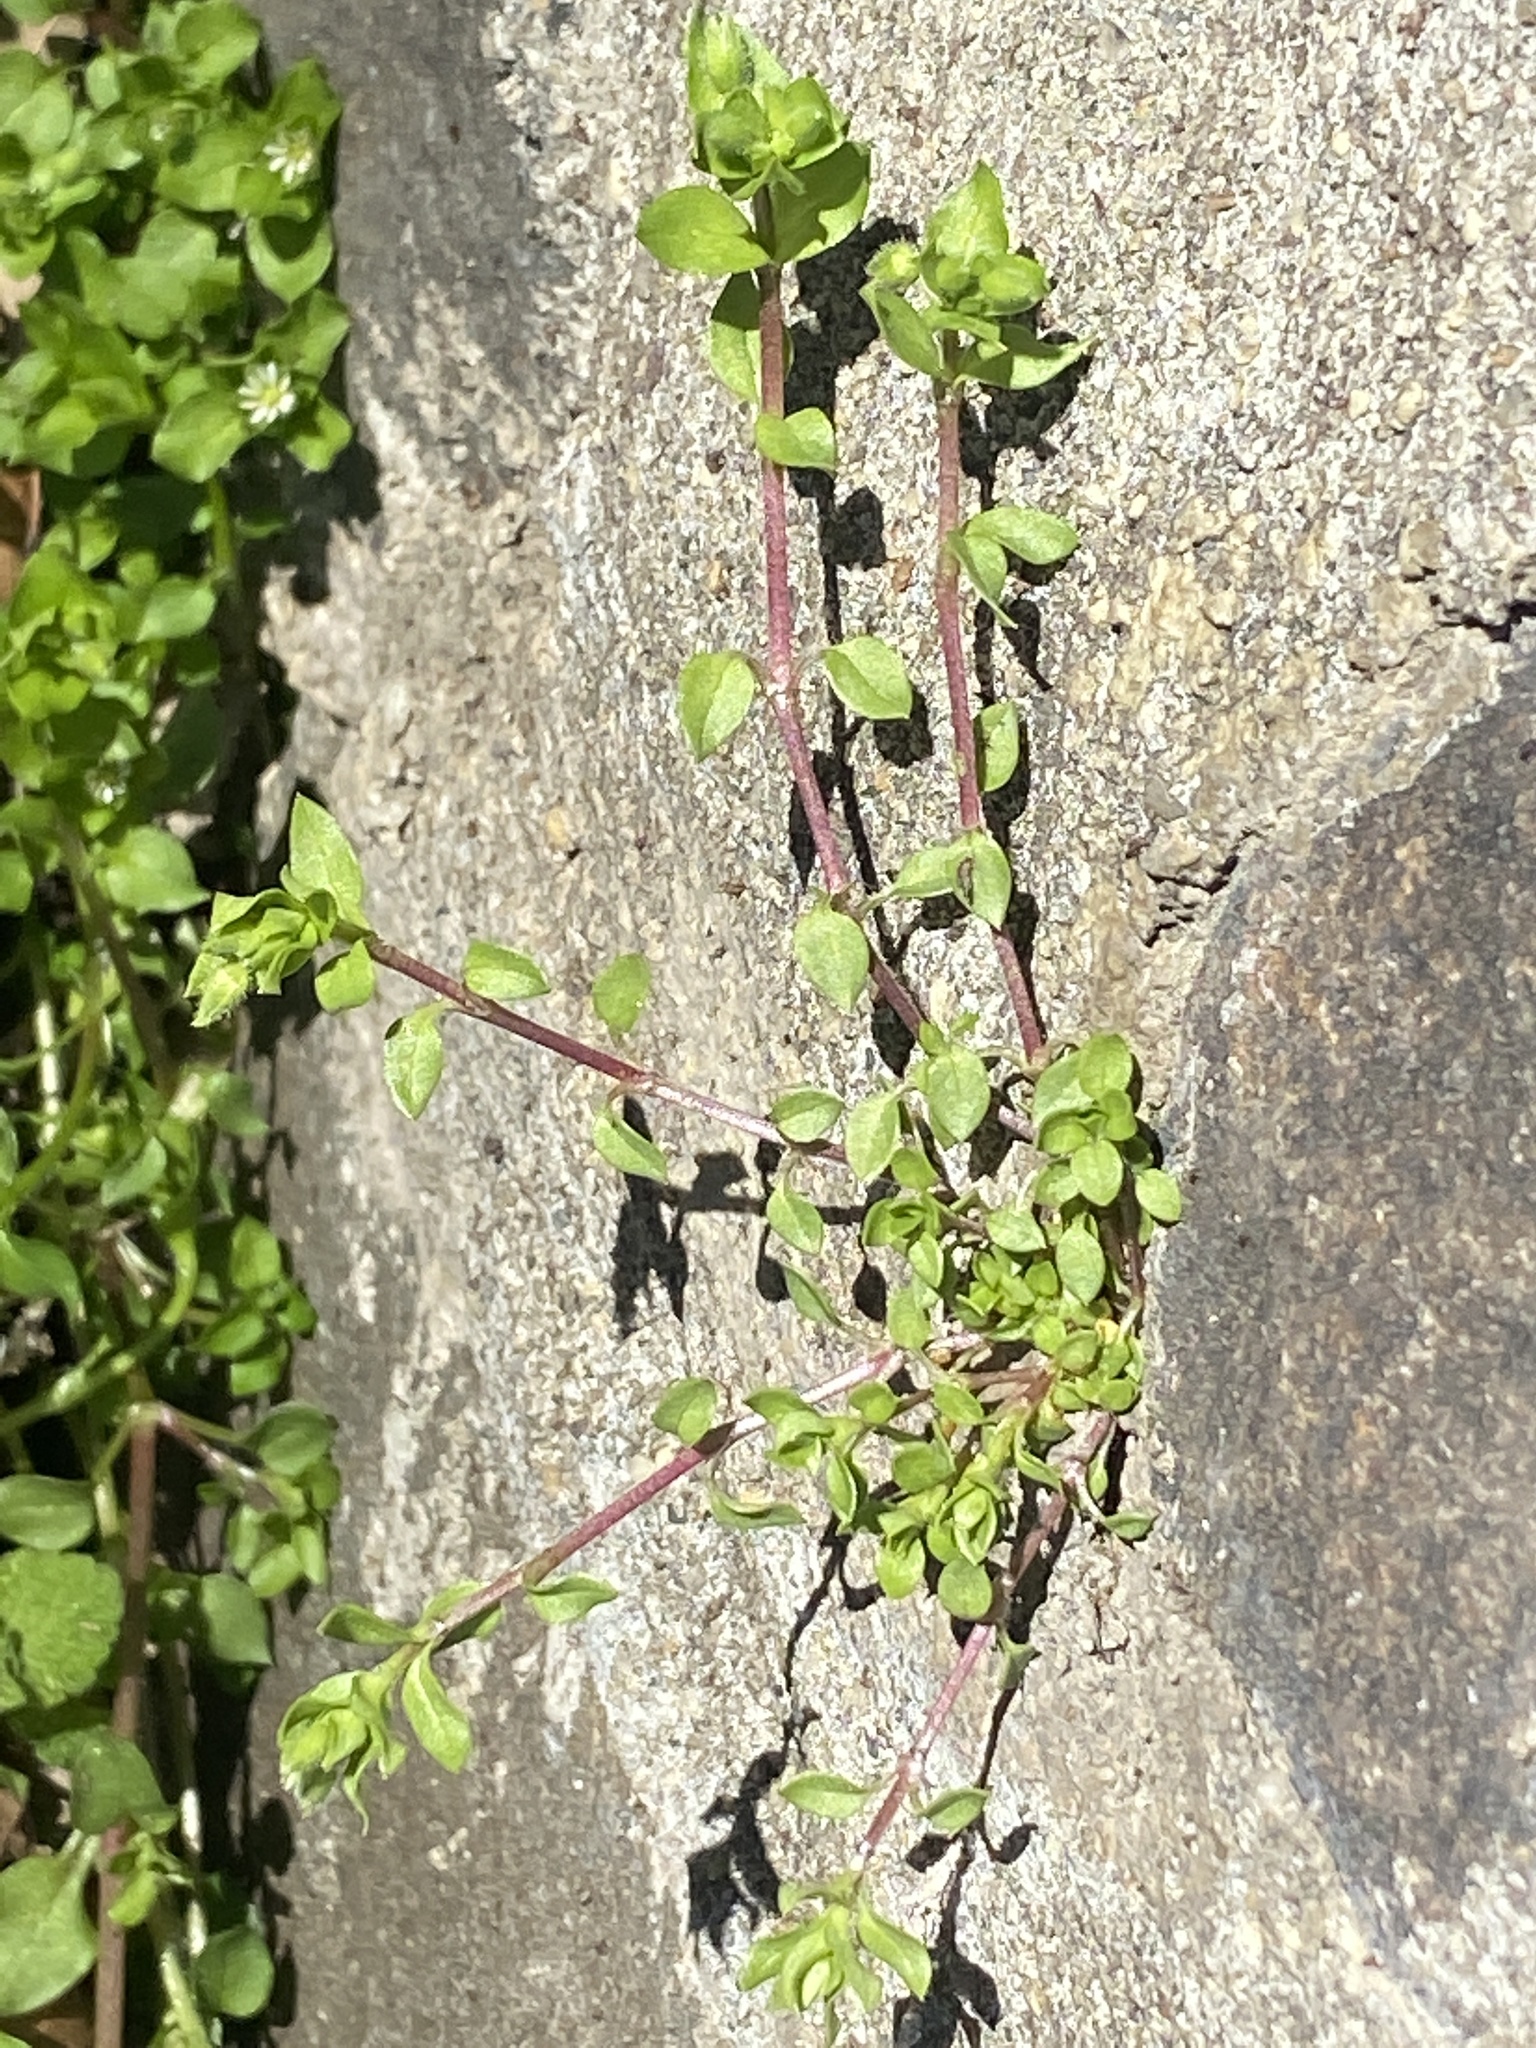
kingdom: Plantae
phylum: Tracheophyta
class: Magnoliopsida
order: Caryophyllales
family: Caryophyllaceae
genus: Stellaria
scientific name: Stellaria media
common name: Common chickweed
